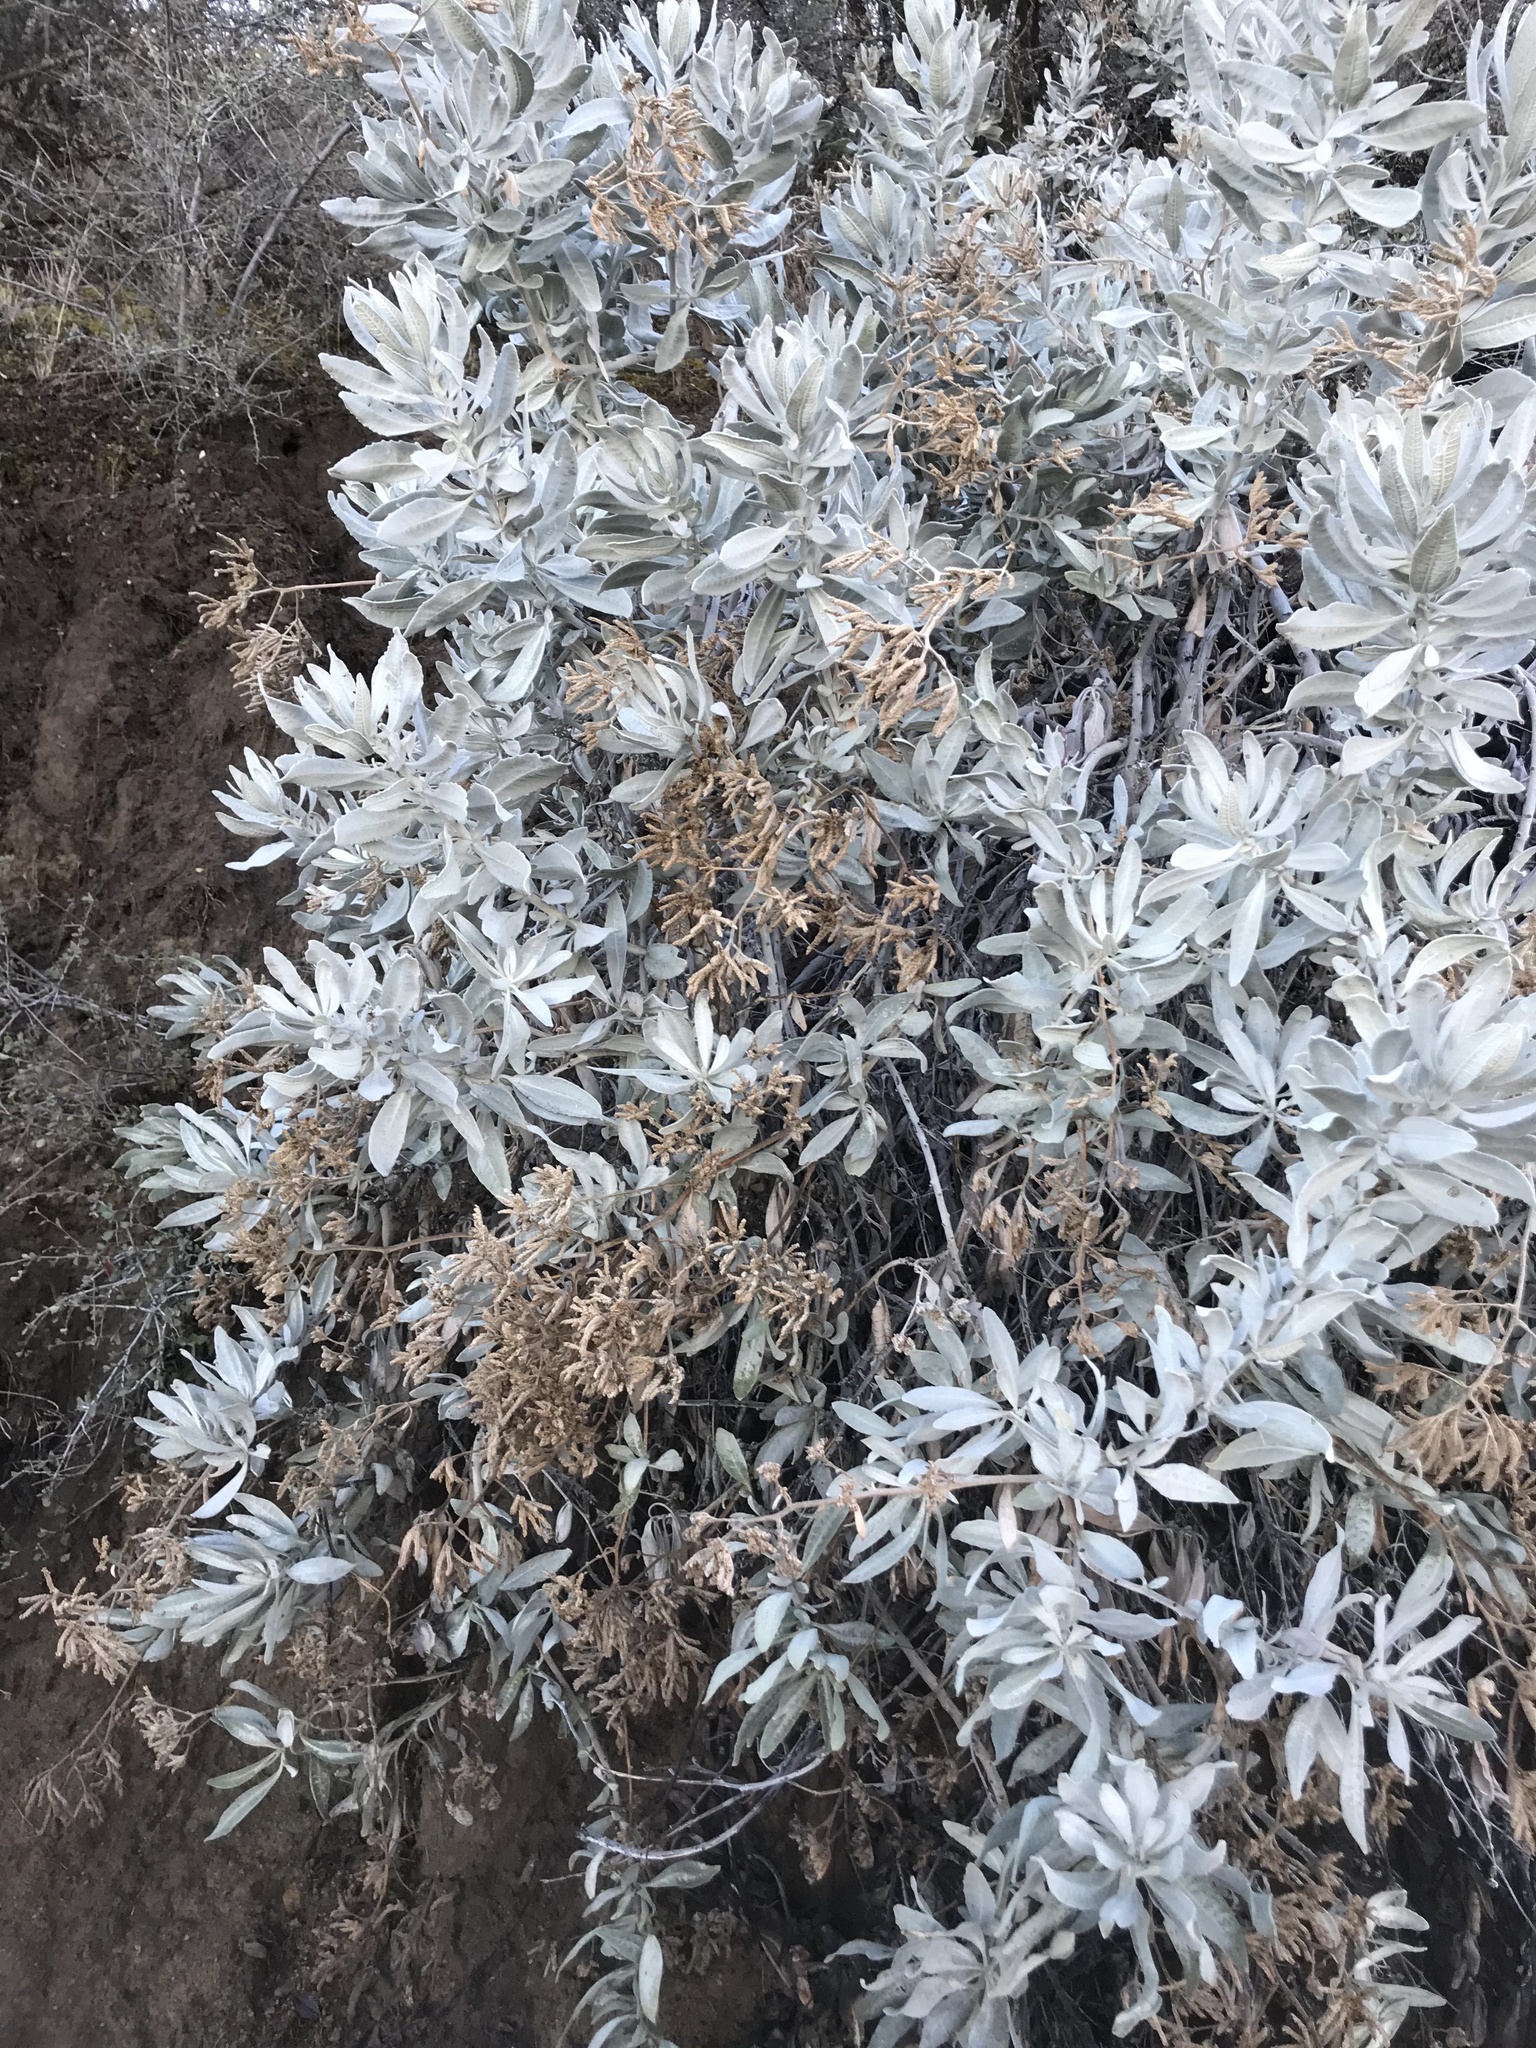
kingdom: Plantae
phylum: Tracheophyta
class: Magnoliopsida
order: Boraginales
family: Namaceae
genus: Eriodictyon
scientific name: Eriodictyon tomentosum
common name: Woolly yerba-santa
